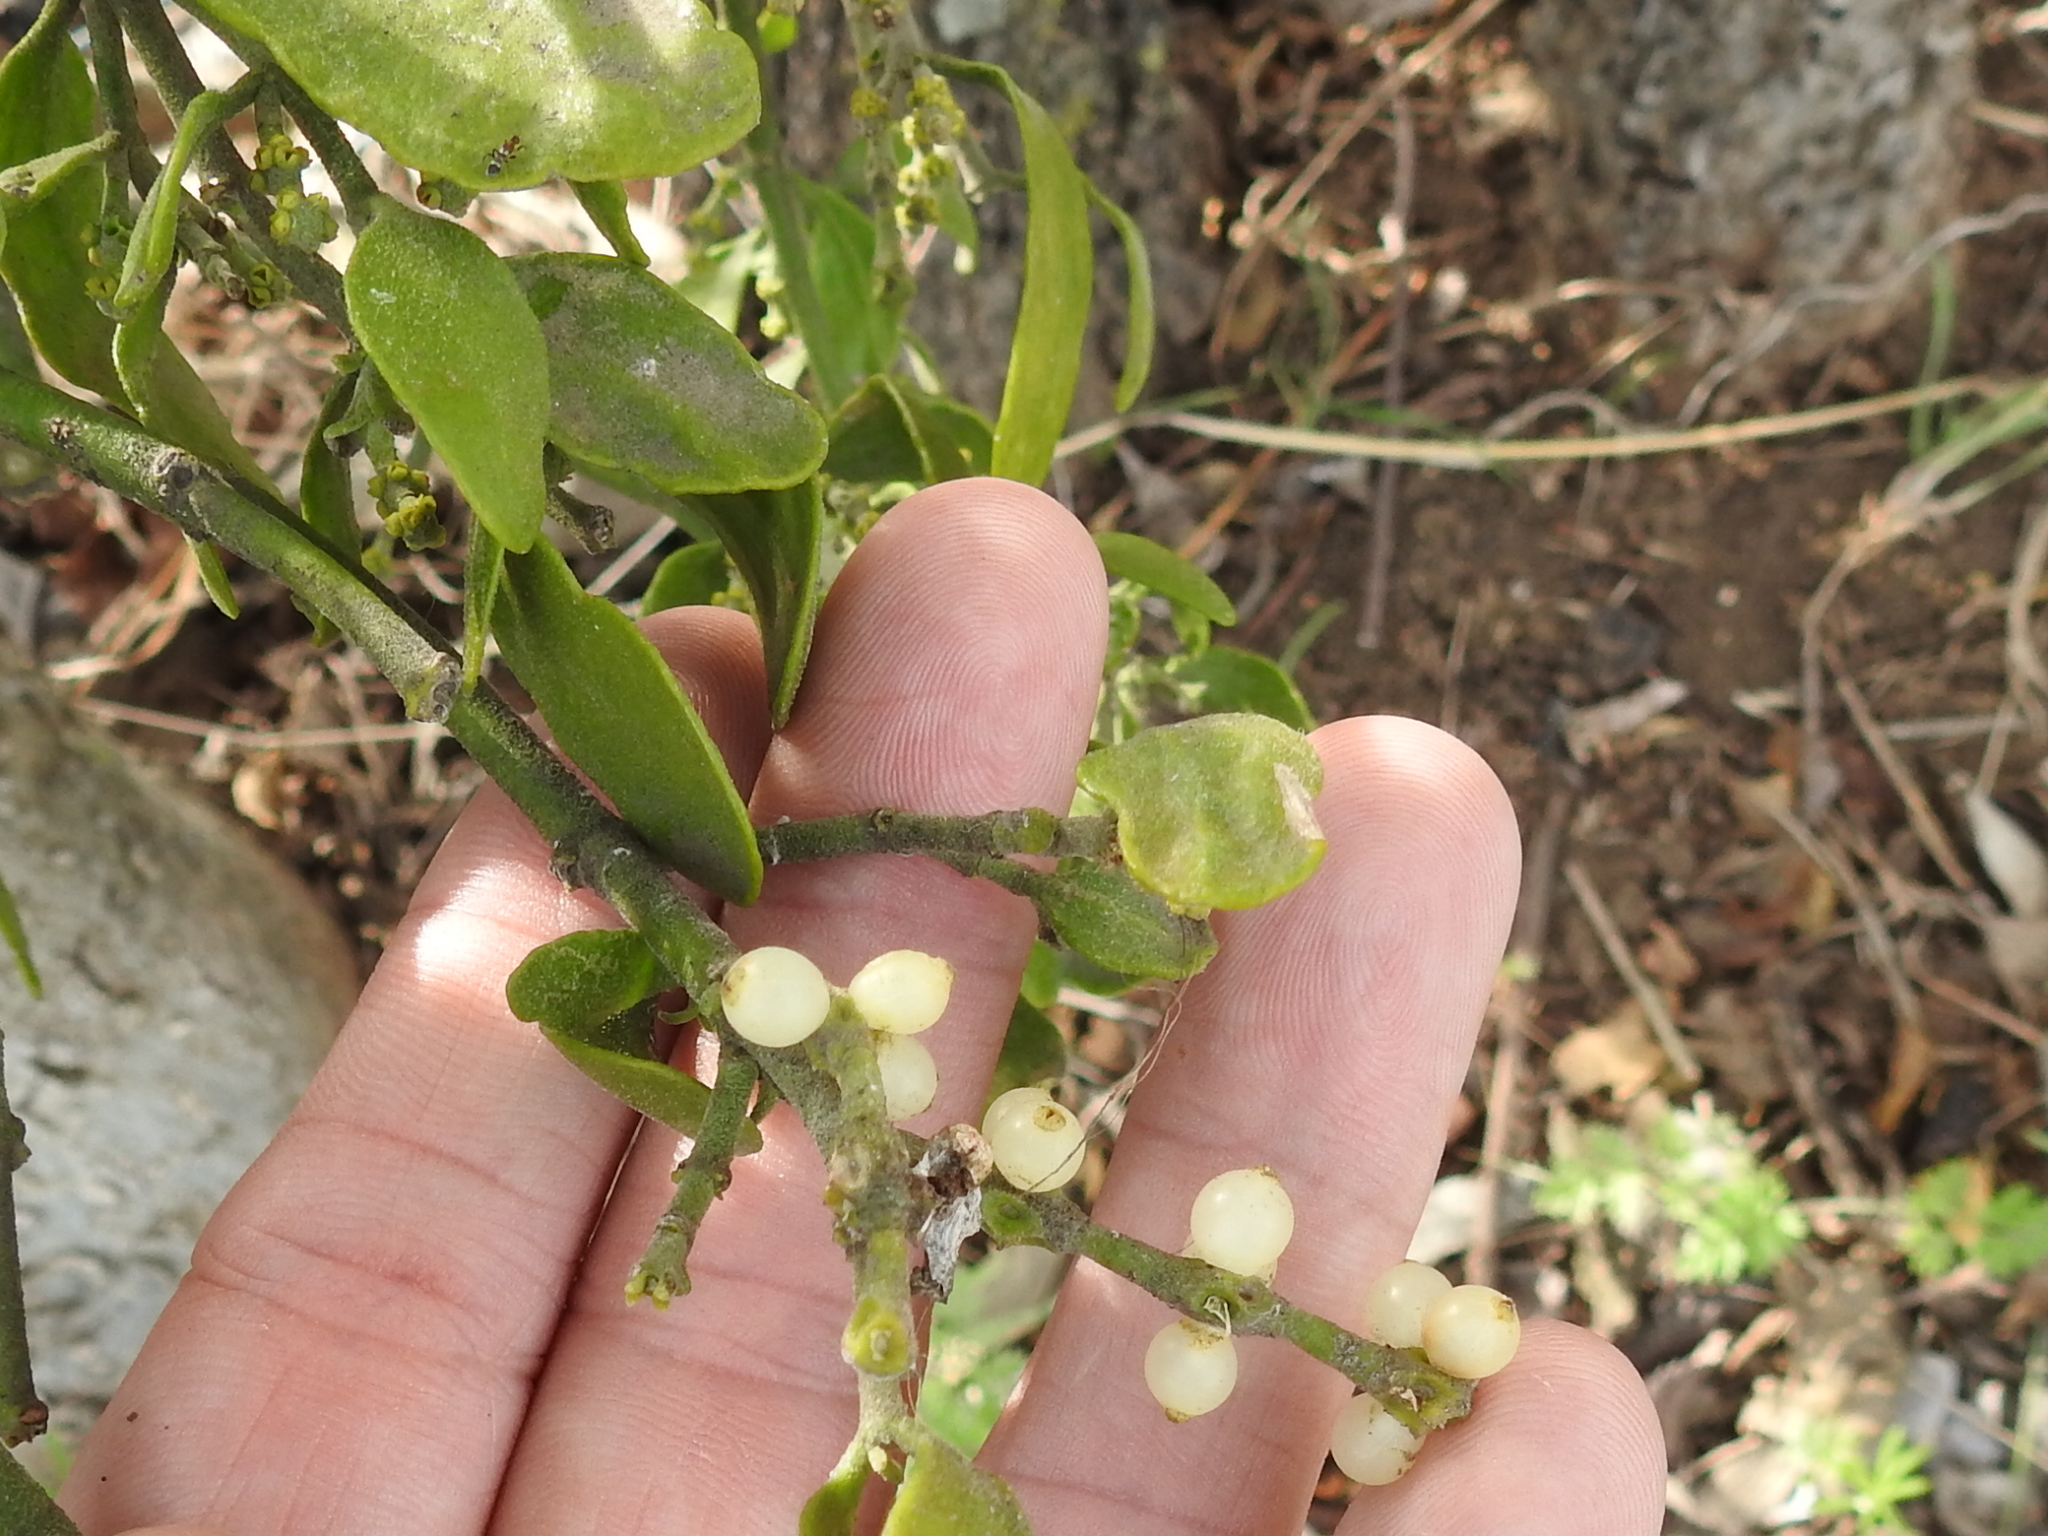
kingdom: Plantae
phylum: Tracheophyta
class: Magnoliopsida
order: Santalales
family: Viscaceae
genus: Phoradendron
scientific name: Phoradendron leucarpum
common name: Pacific mistletoe
